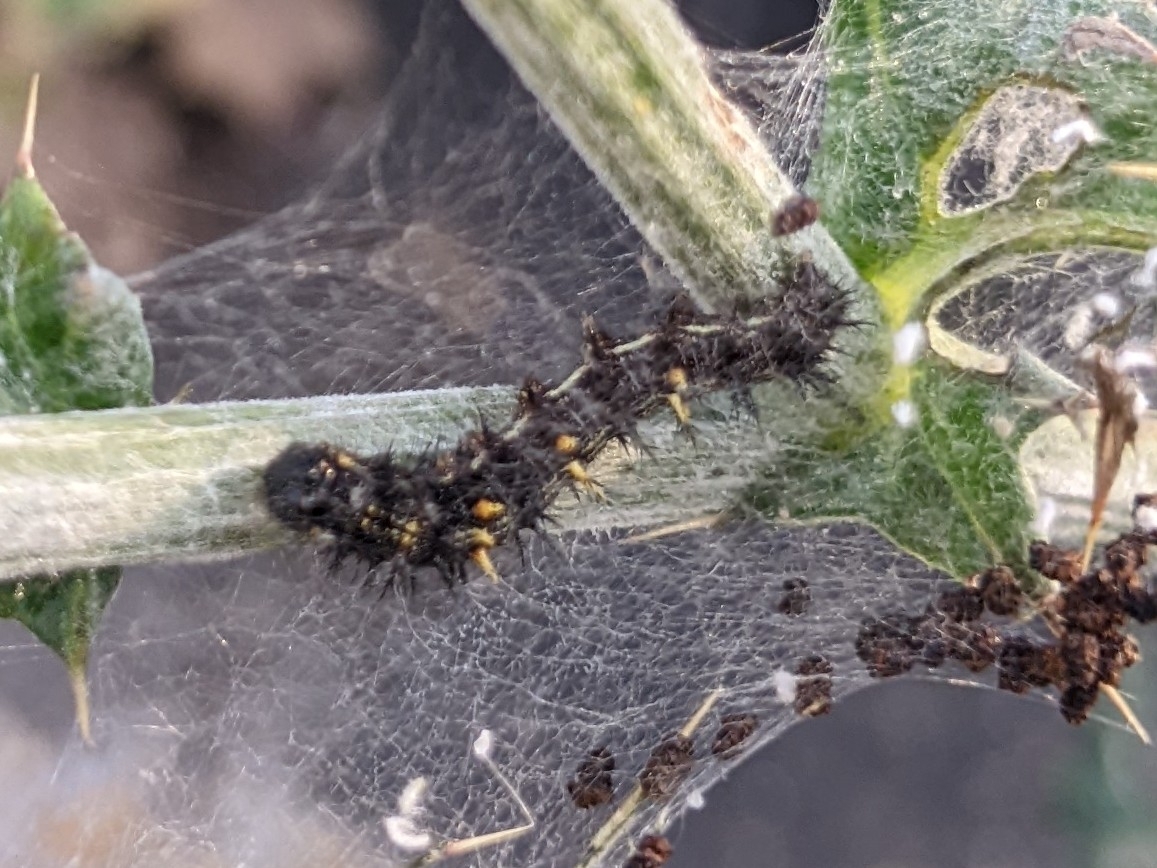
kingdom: Animalia
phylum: Arthropoda
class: Insecta
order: Lepidoptera
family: Nymphalidae
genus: Vanessa
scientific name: Vanessa cardui
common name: Painted lady
